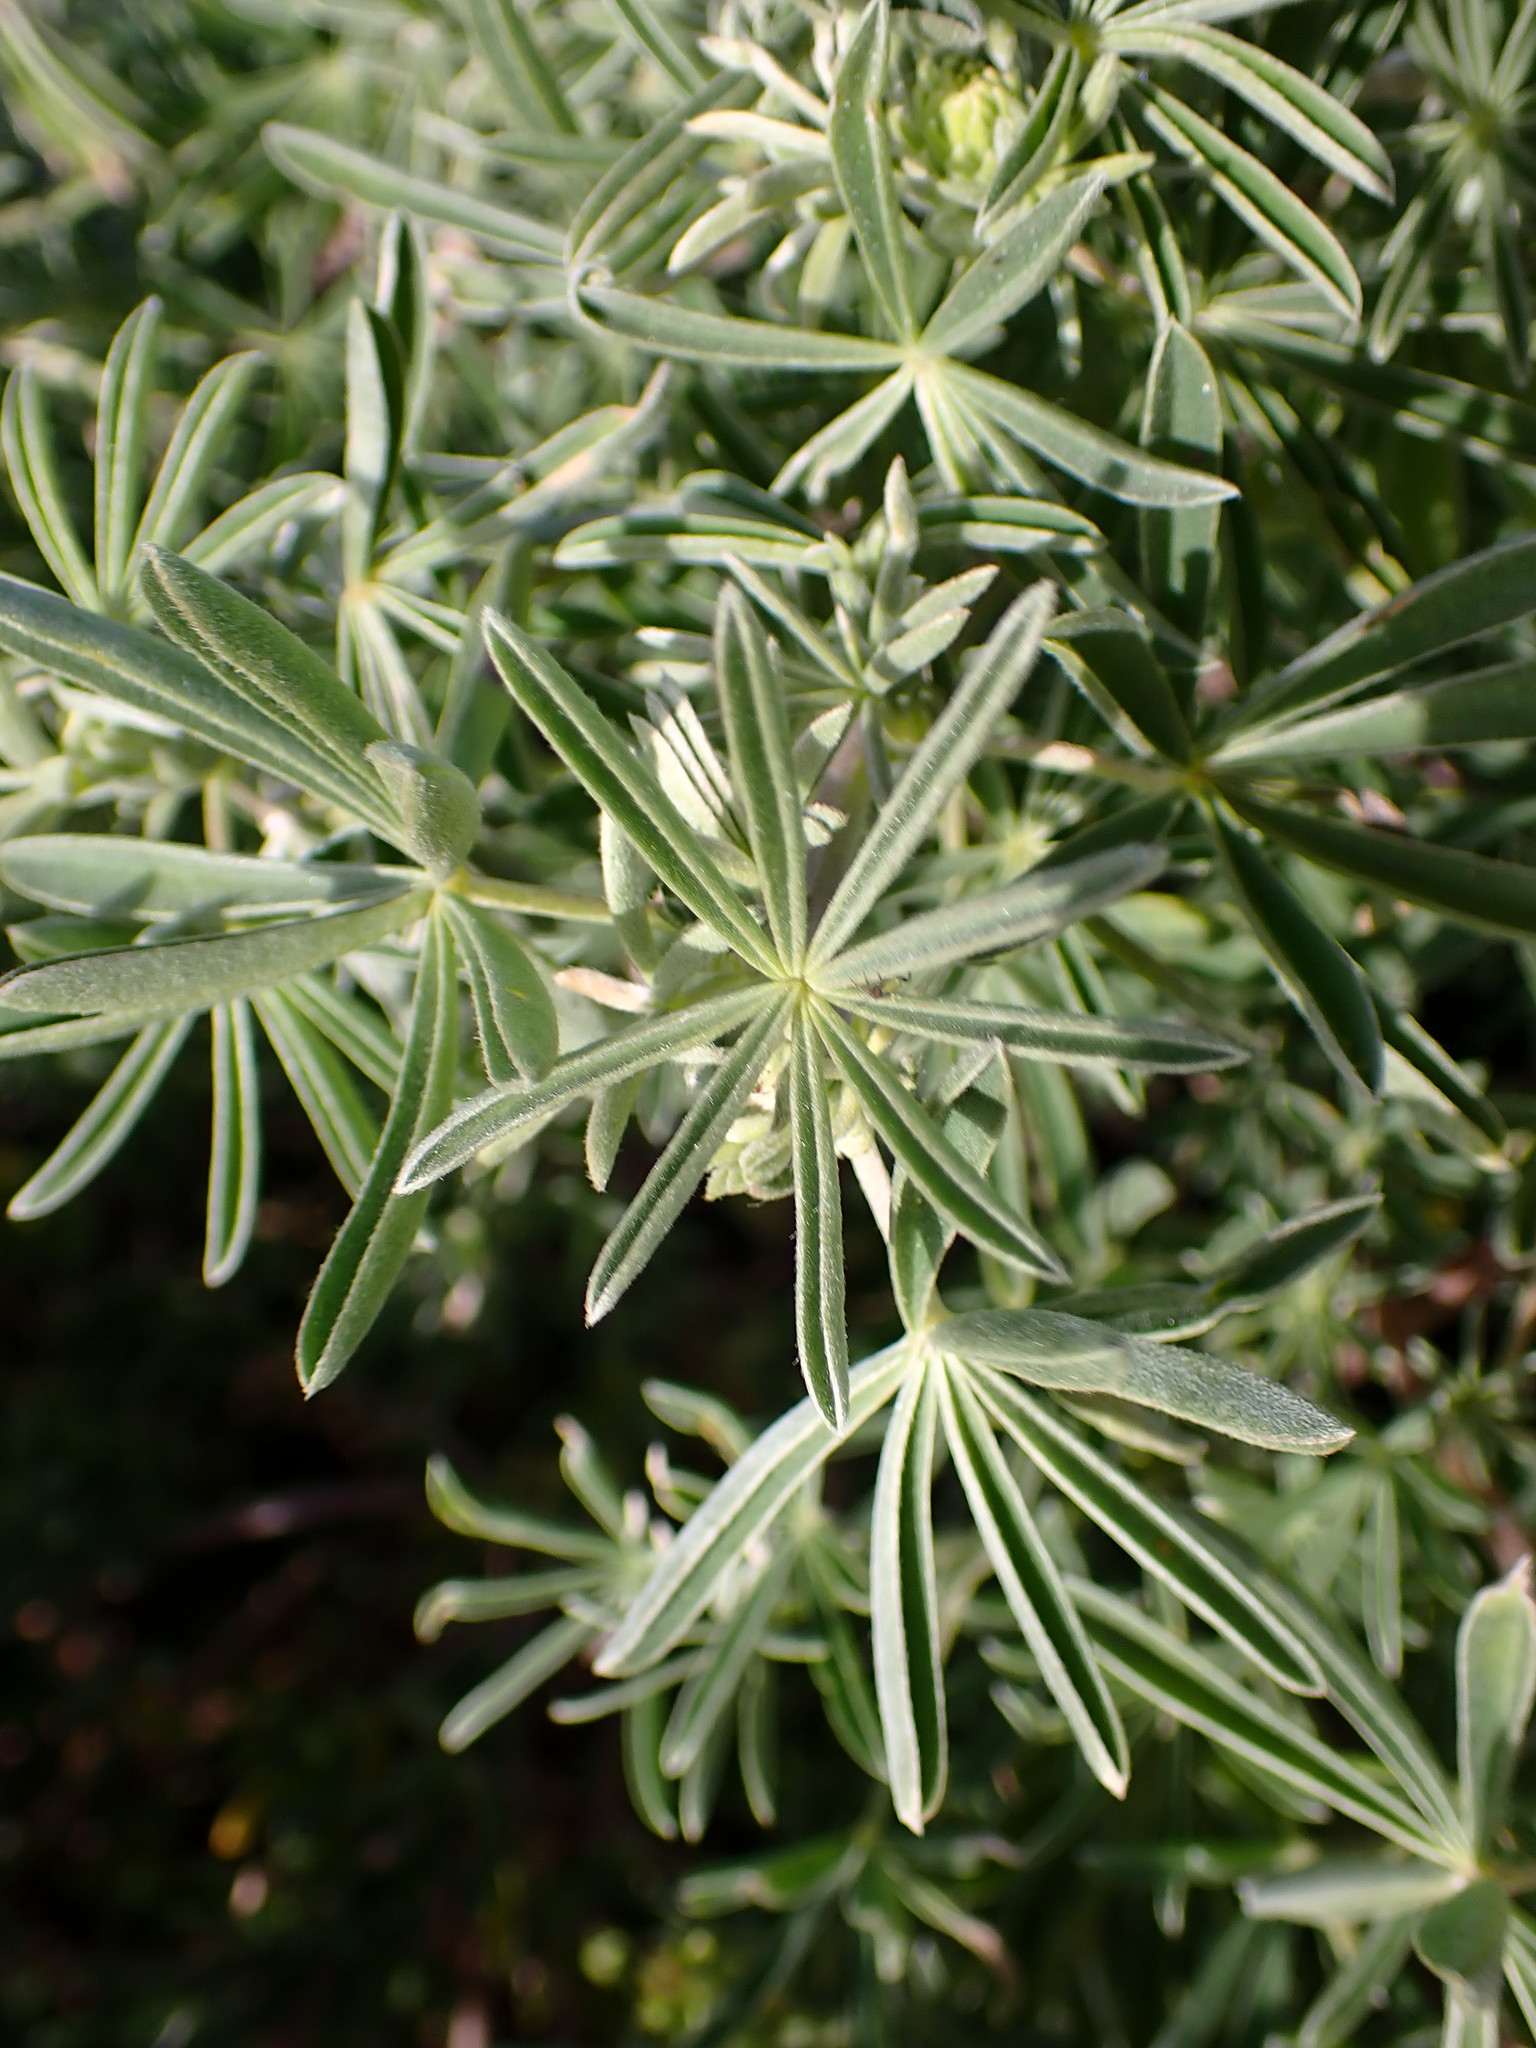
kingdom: Plantae
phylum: Tracheophyta
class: Magnoliopsida
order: Fabales
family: Fabaceae
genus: Lupinus
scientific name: Lupinus arboreus
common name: Yellow bush lupine
